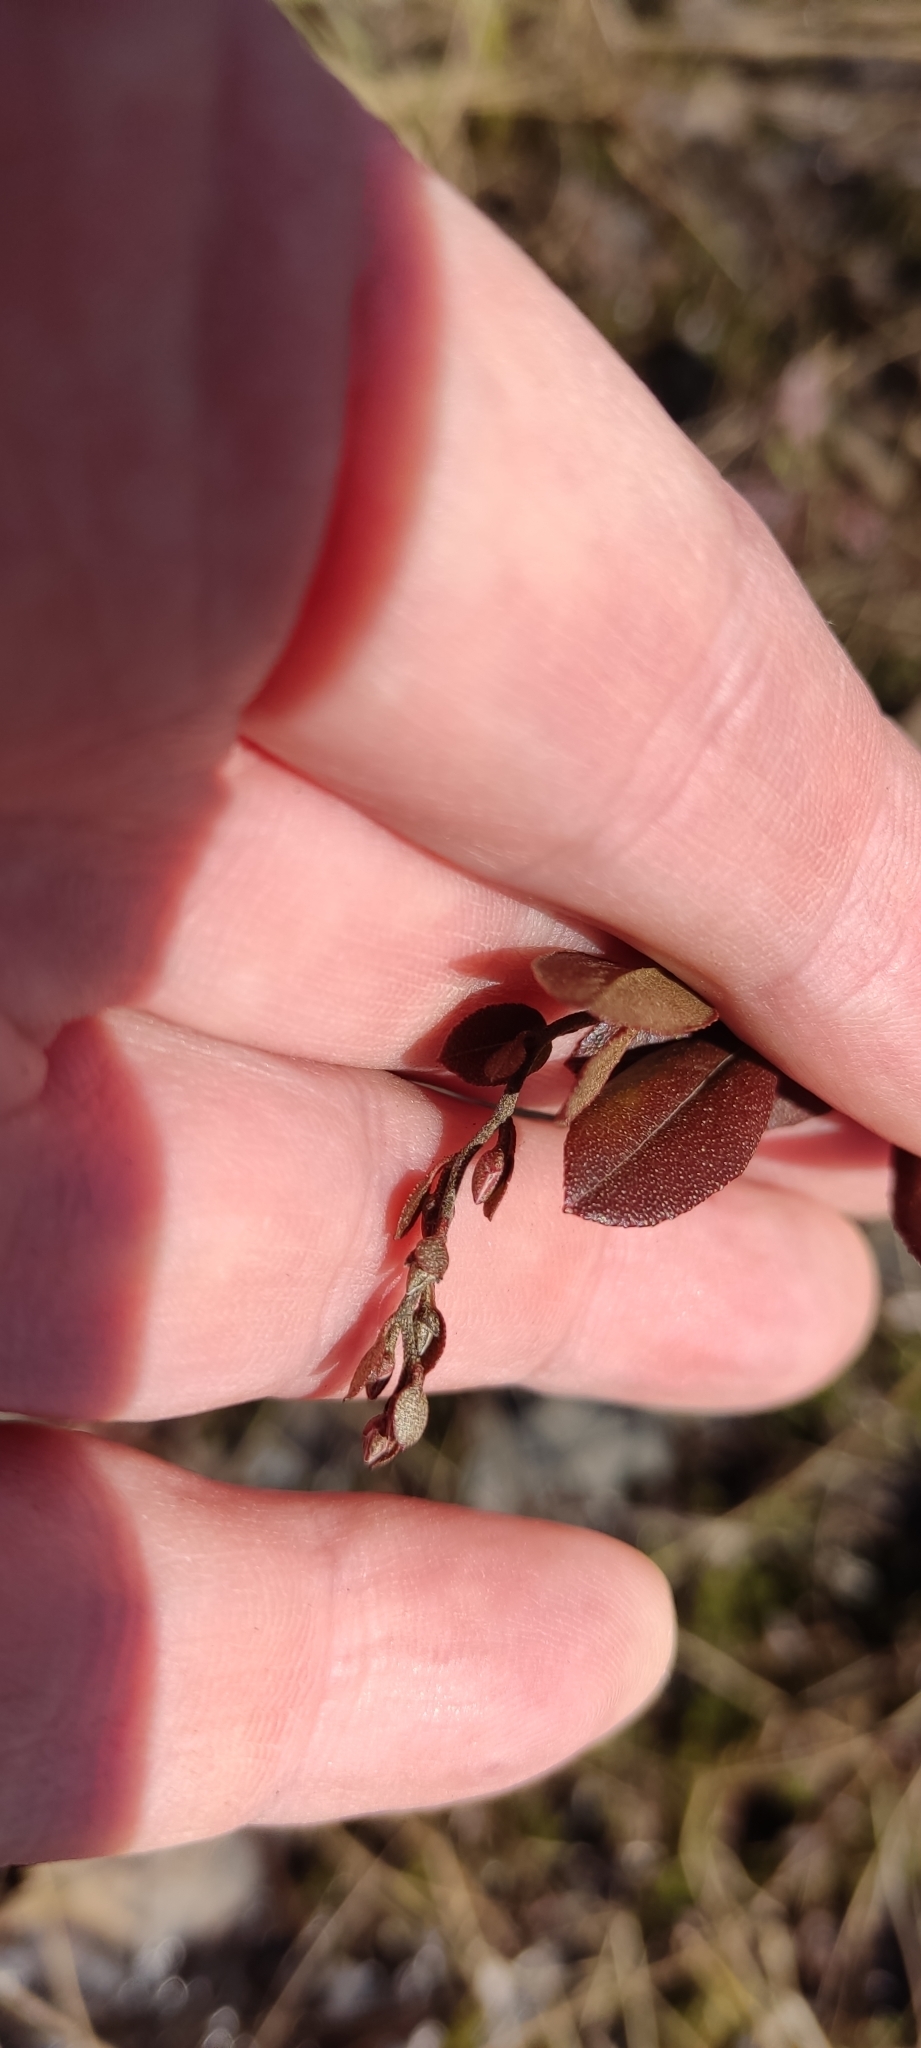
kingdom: Plantae
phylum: Tracheophyta
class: Magnoliopsida
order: Ericales
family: Ericaceae
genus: Chamaedaphne
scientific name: Chamaedaphne calyculata
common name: Leatherleaf
